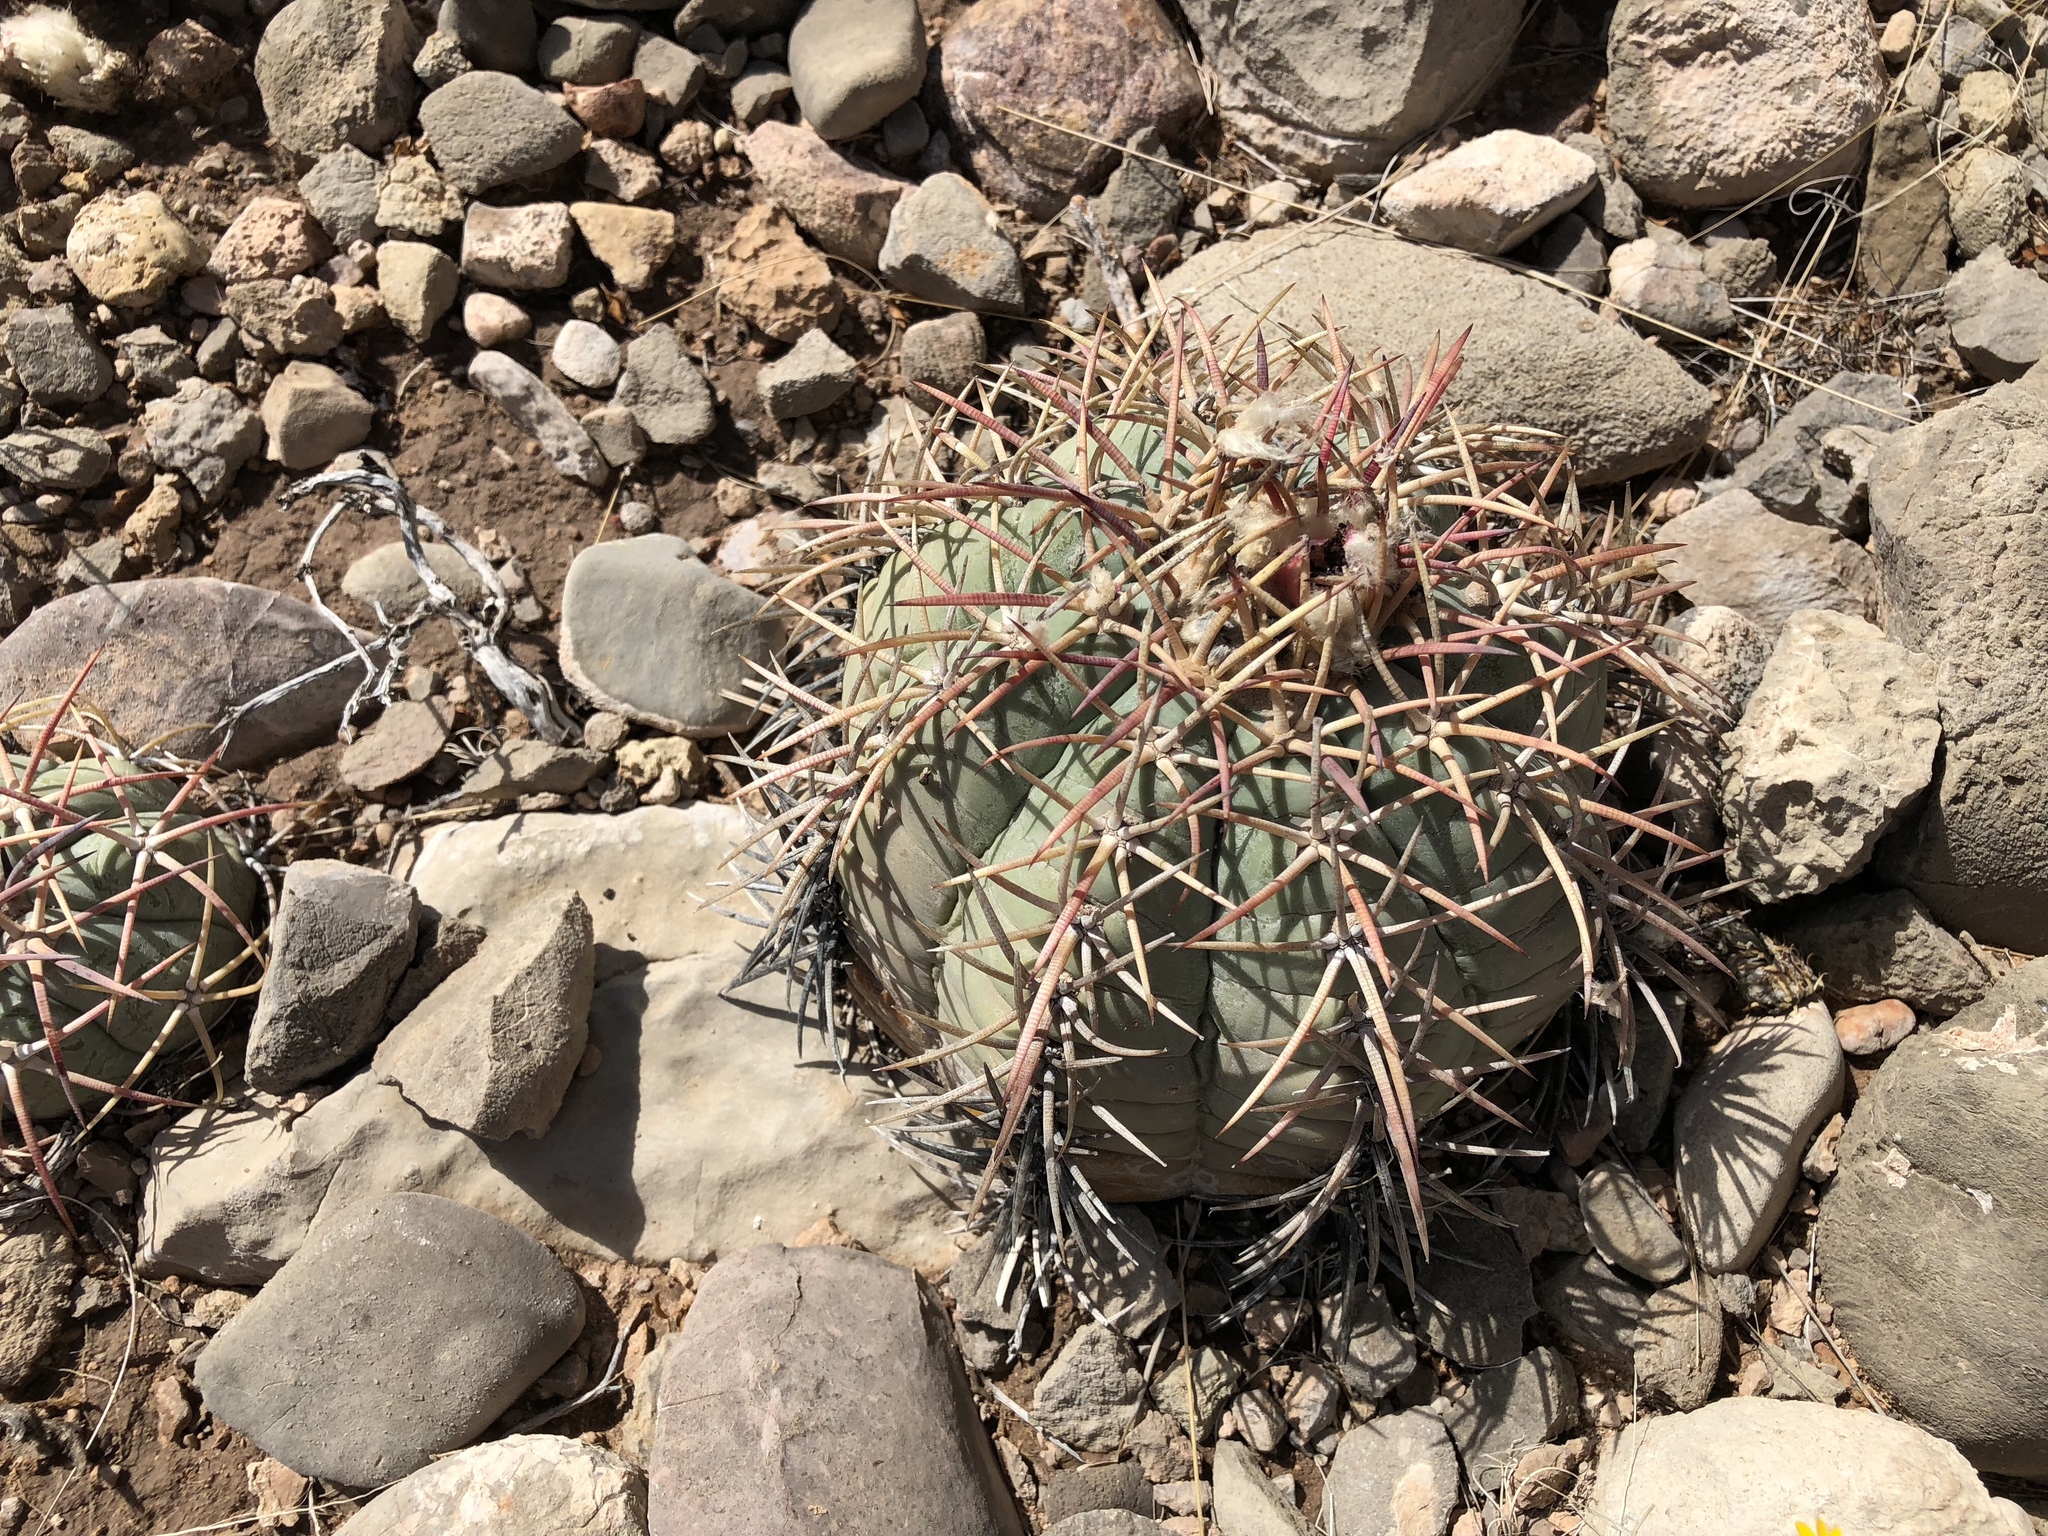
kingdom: Plantae
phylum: Tracheophyta
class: Magnoliopsida
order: Caryophyllales
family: Cactaceae
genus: Echinocactus
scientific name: Echinocactus horizonthalonius
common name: Devilshead
